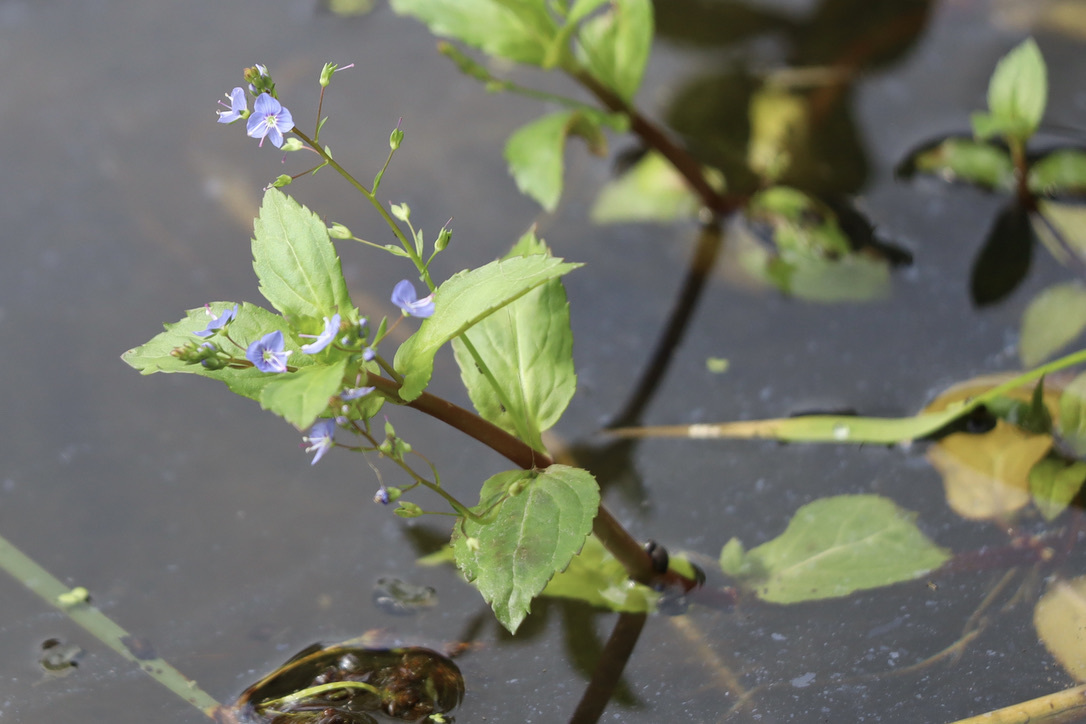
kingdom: Plantae
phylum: Tracheophyta
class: Magnoliopsida
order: Lamiales
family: Plantaginaceae
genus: Veronica
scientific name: Veronica americana
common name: American brooklime
